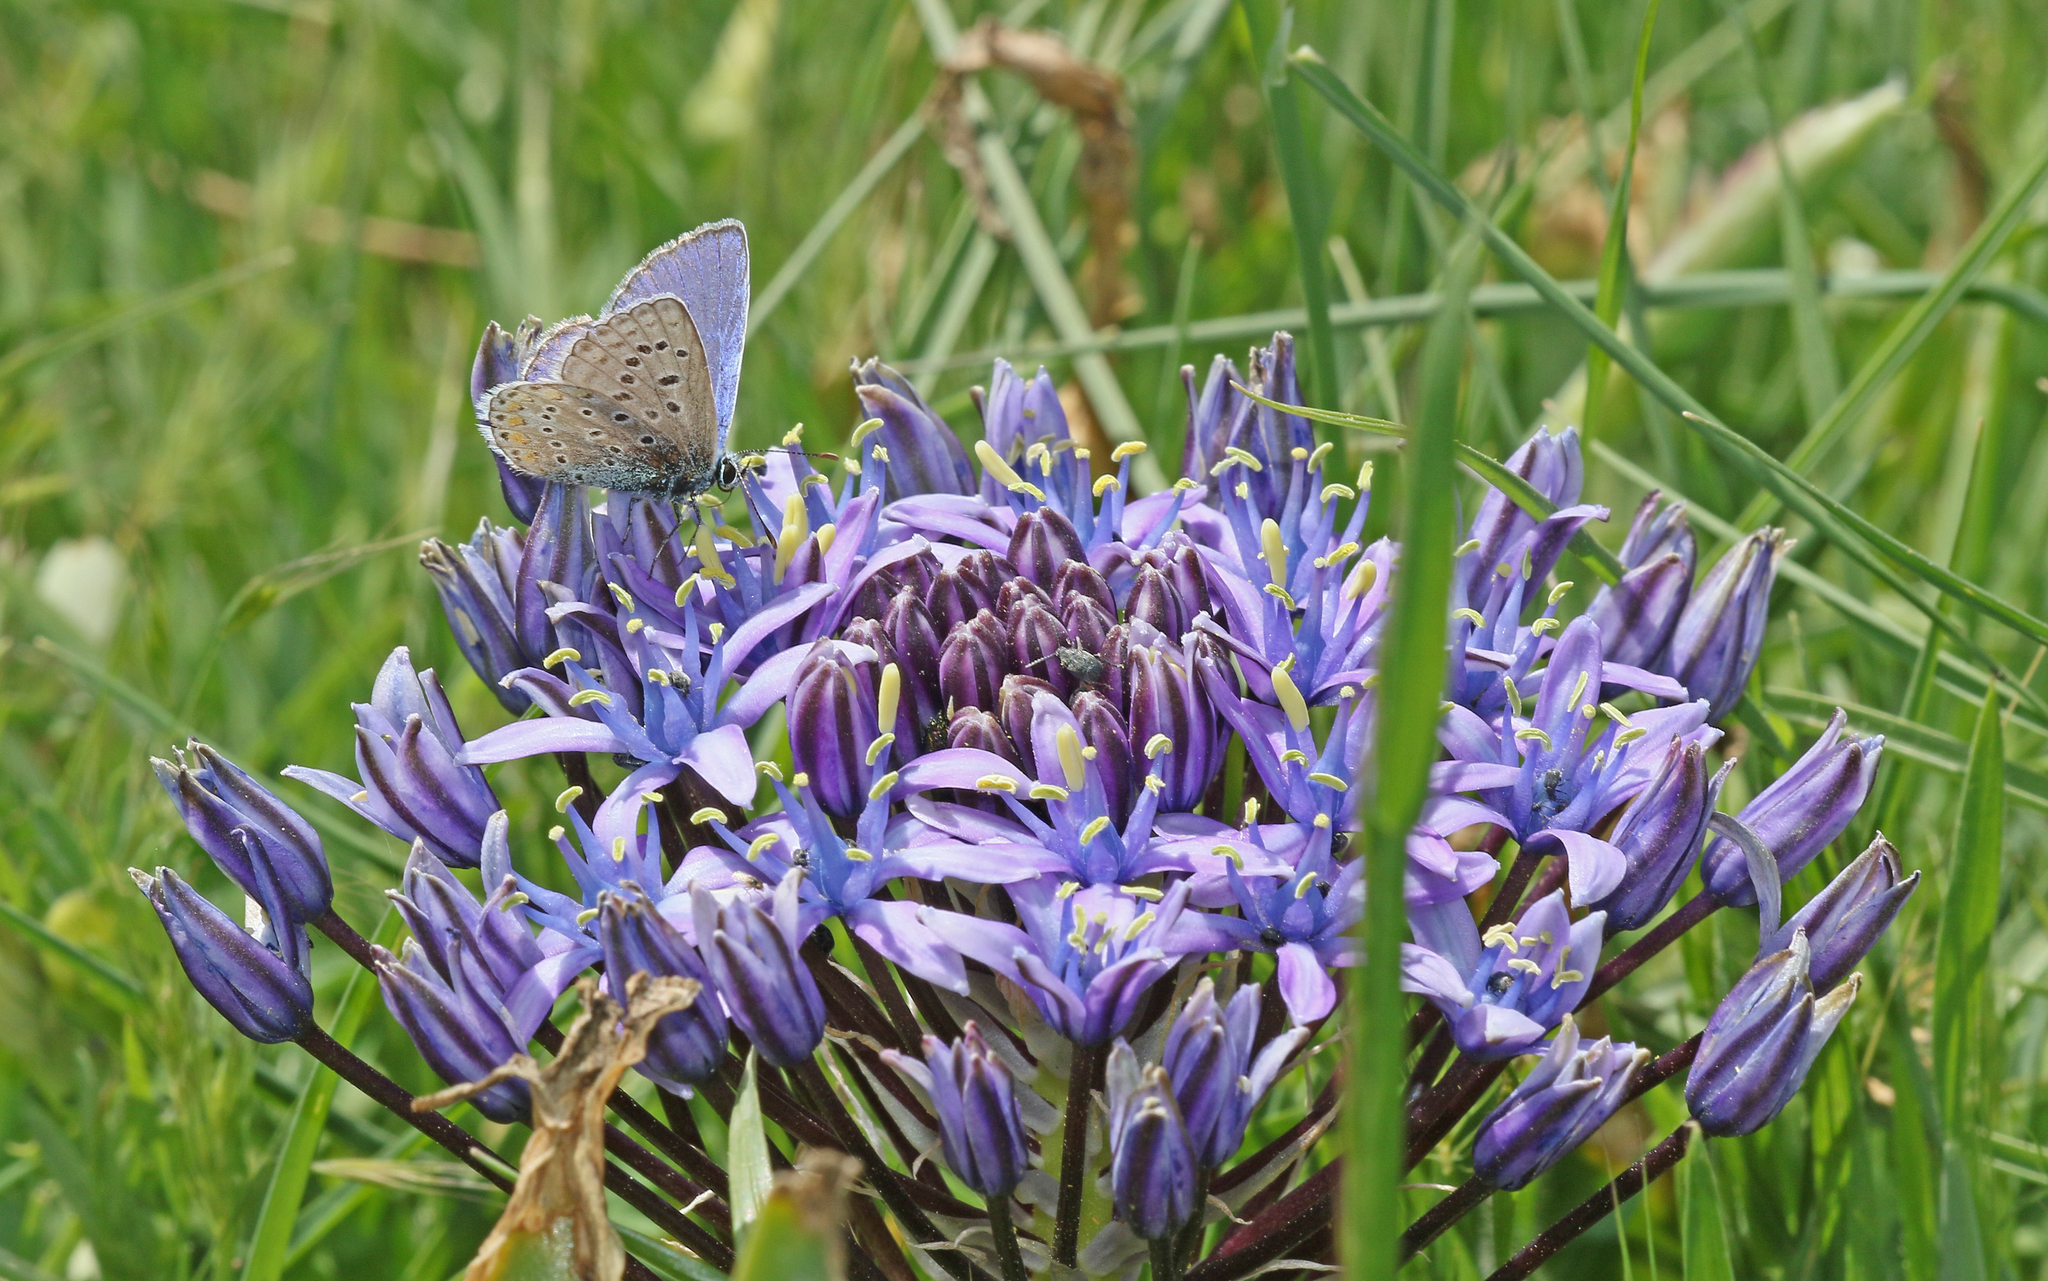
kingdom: Animalia
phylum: Arthropoda
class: Insecta
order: Lepidoptera
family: Lycaenidae
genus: Polyommatus
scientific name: Polyommatus celina
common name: Austaut's blue
